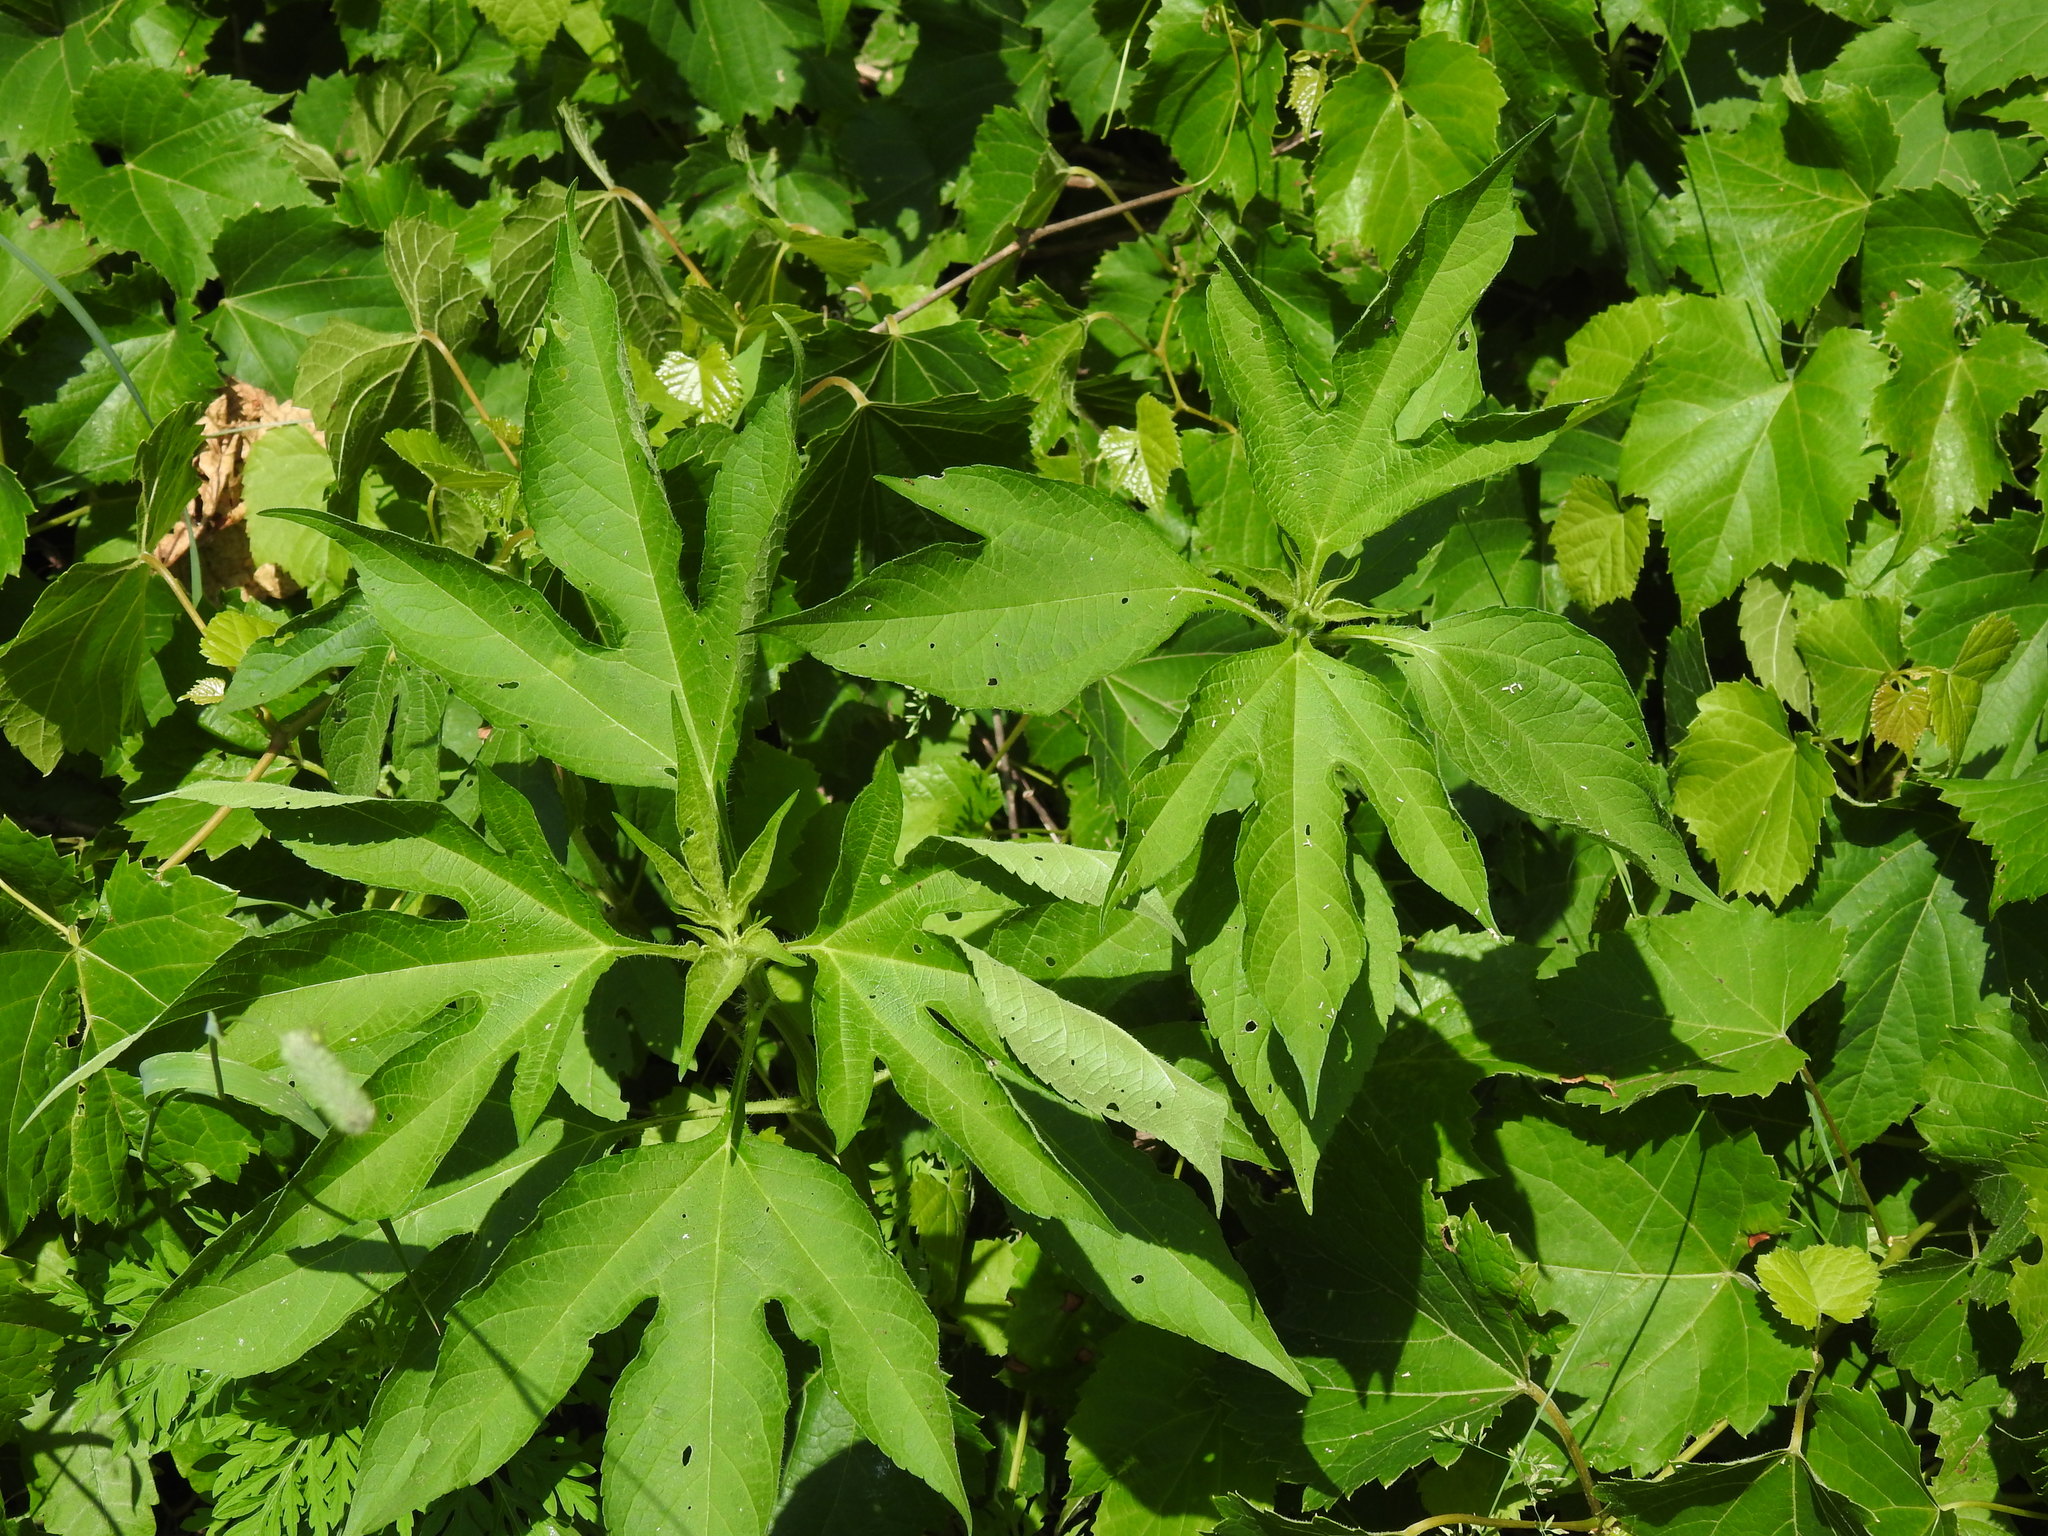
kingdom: Plantae
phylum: Tracheophyta
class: Magnoliopsida
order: Asterales
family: Asteraceae
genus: Ambrosia
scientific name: Ambrosia trifida
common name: Giant ragweed
